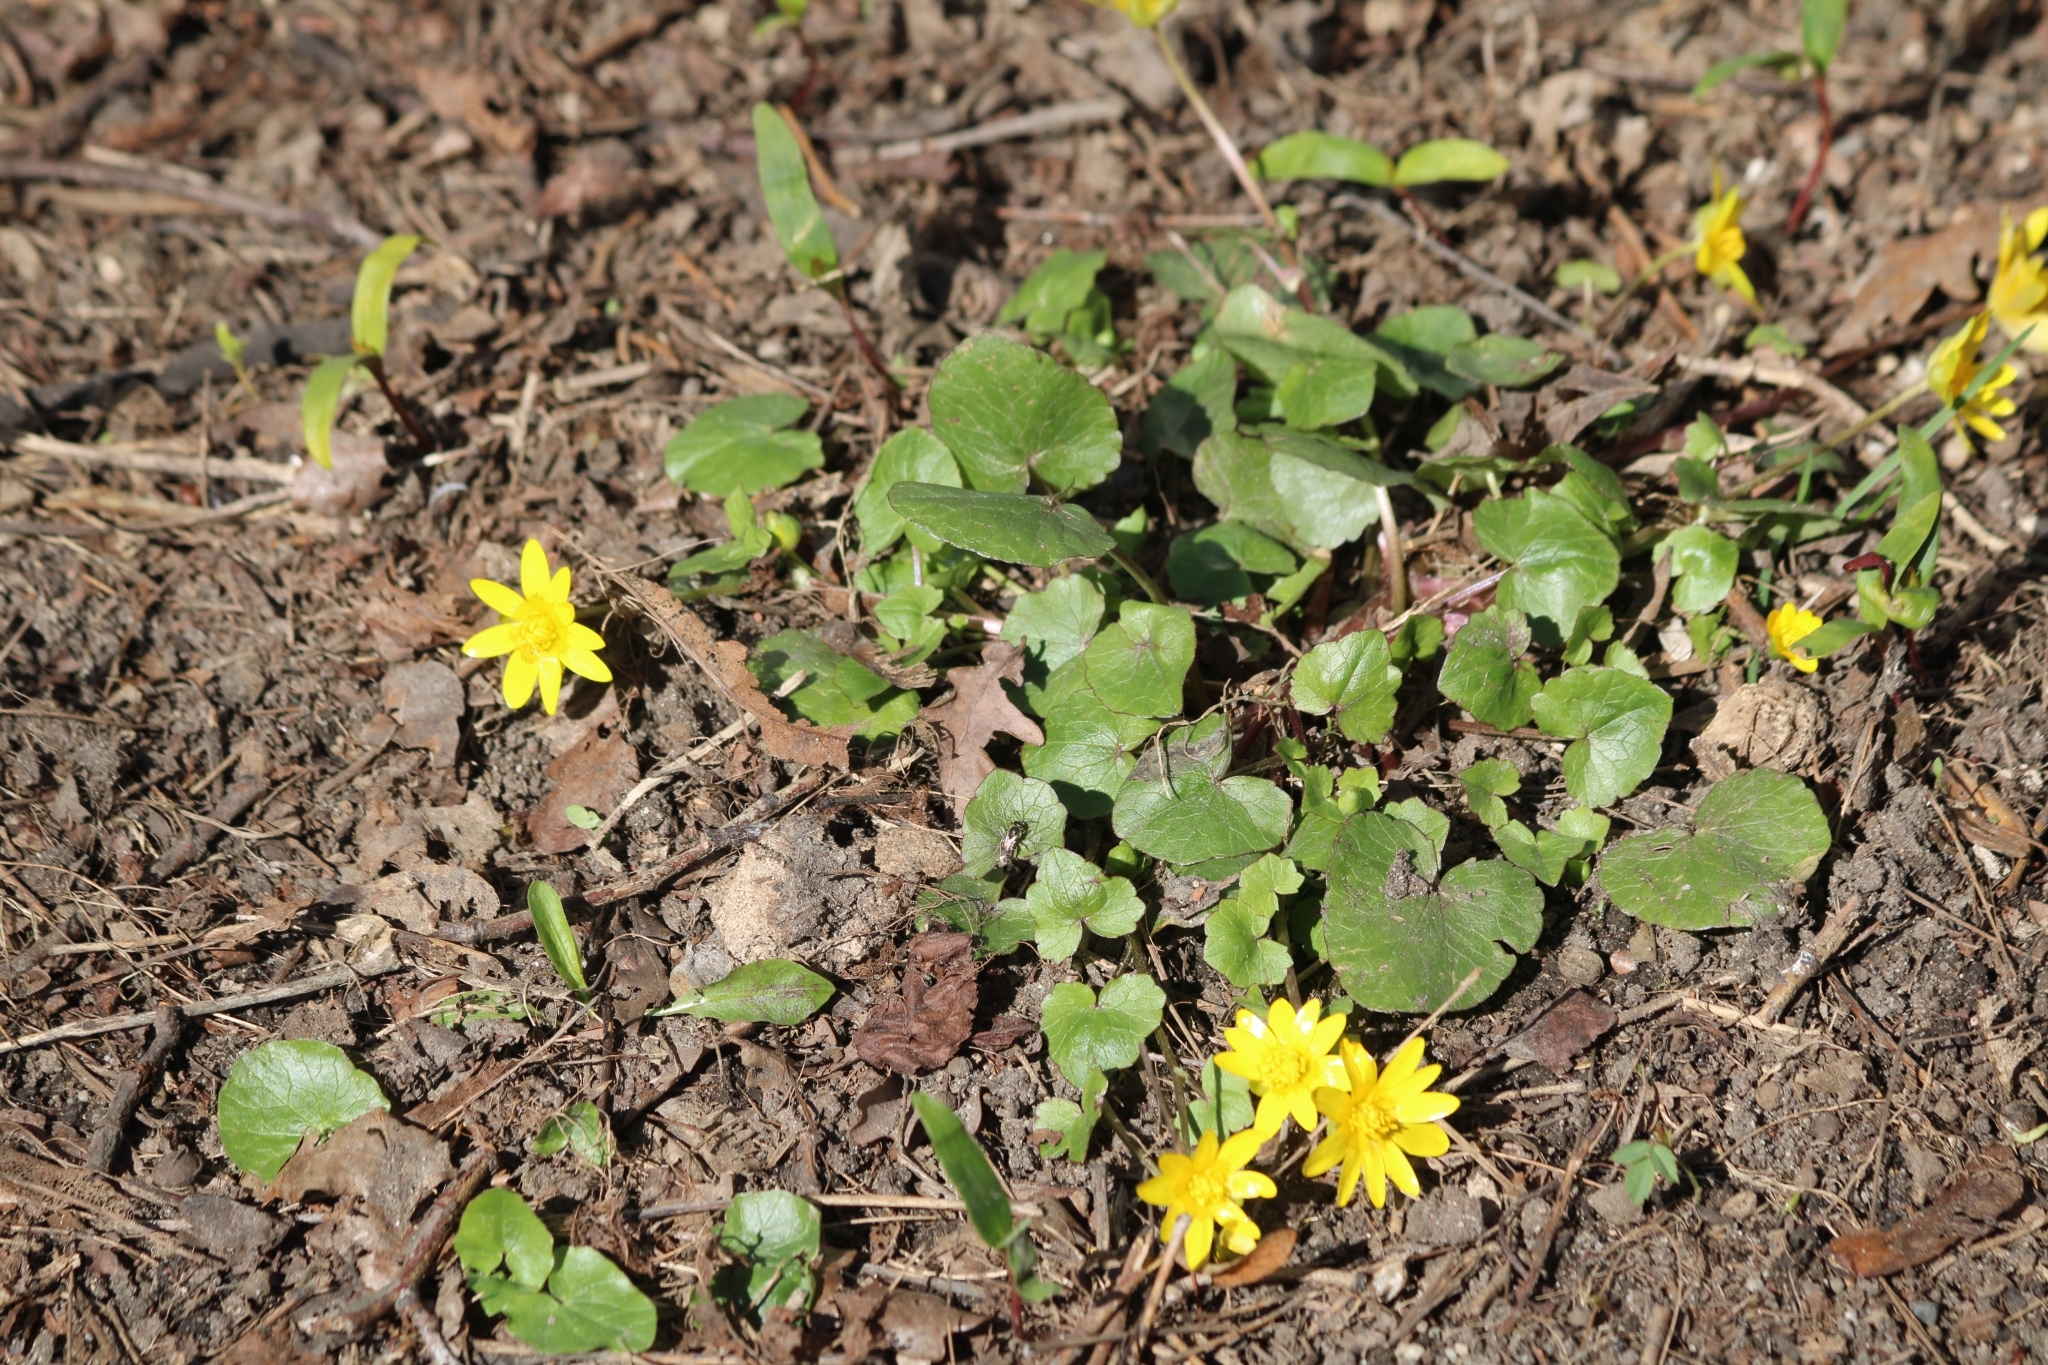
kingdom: Plantae
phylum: Tracheophyta
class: Magnoliopsida
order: Ranunculales
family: Ranunculaceae
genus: Ficaria
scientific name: Ficaria verna
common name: Lesser celandine
